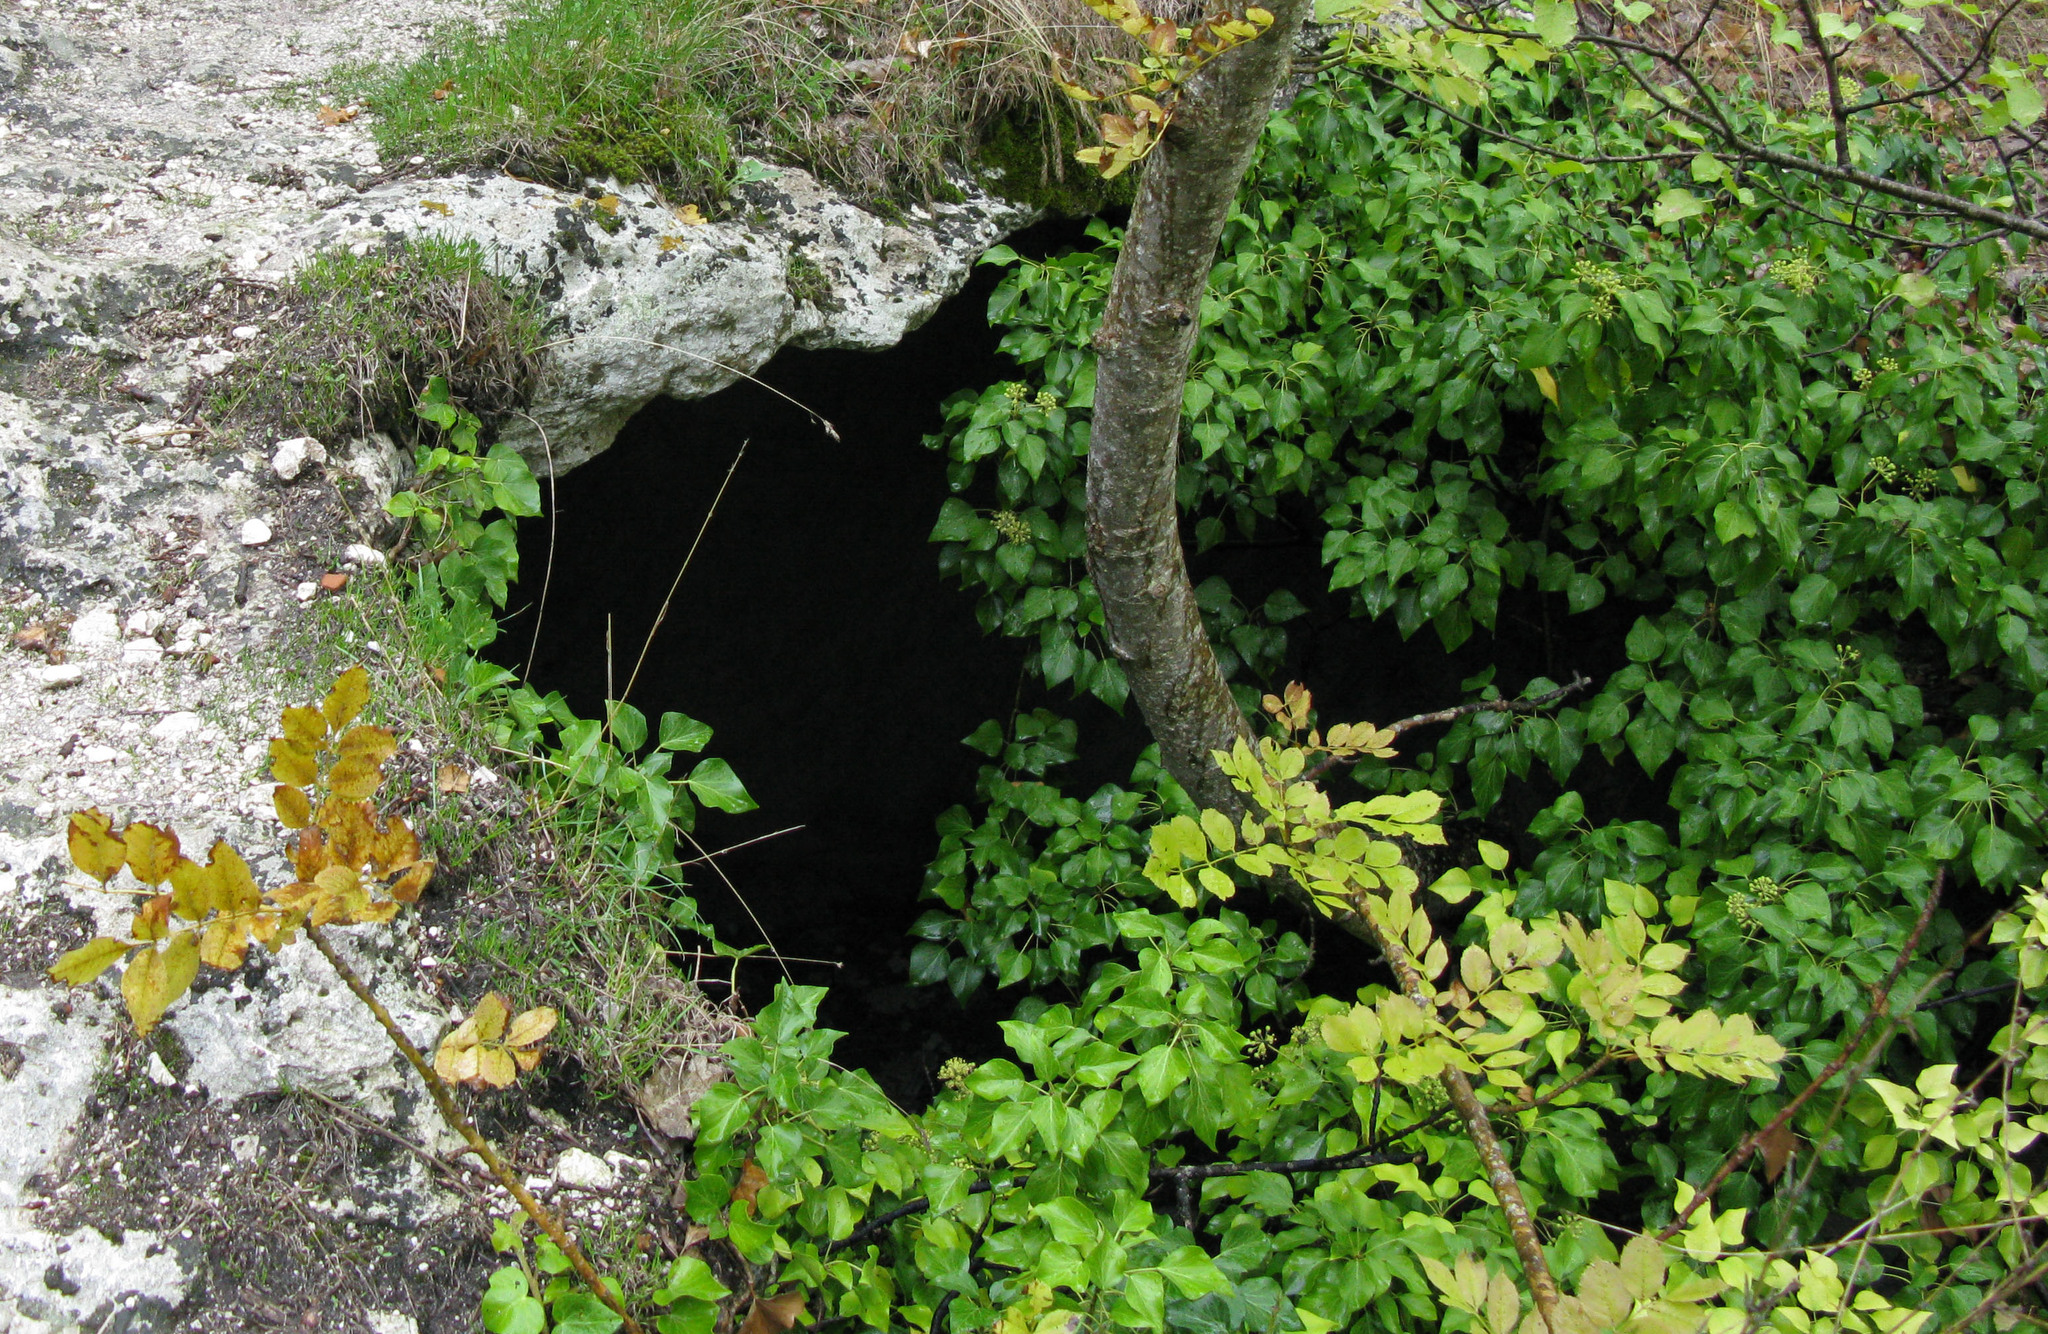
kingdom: Plantae
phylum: Tracheophyta
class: Magnoliopsida
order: Apiales
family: Araliaceae
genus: Hedera
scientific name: Hedera helix
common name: Ivy
